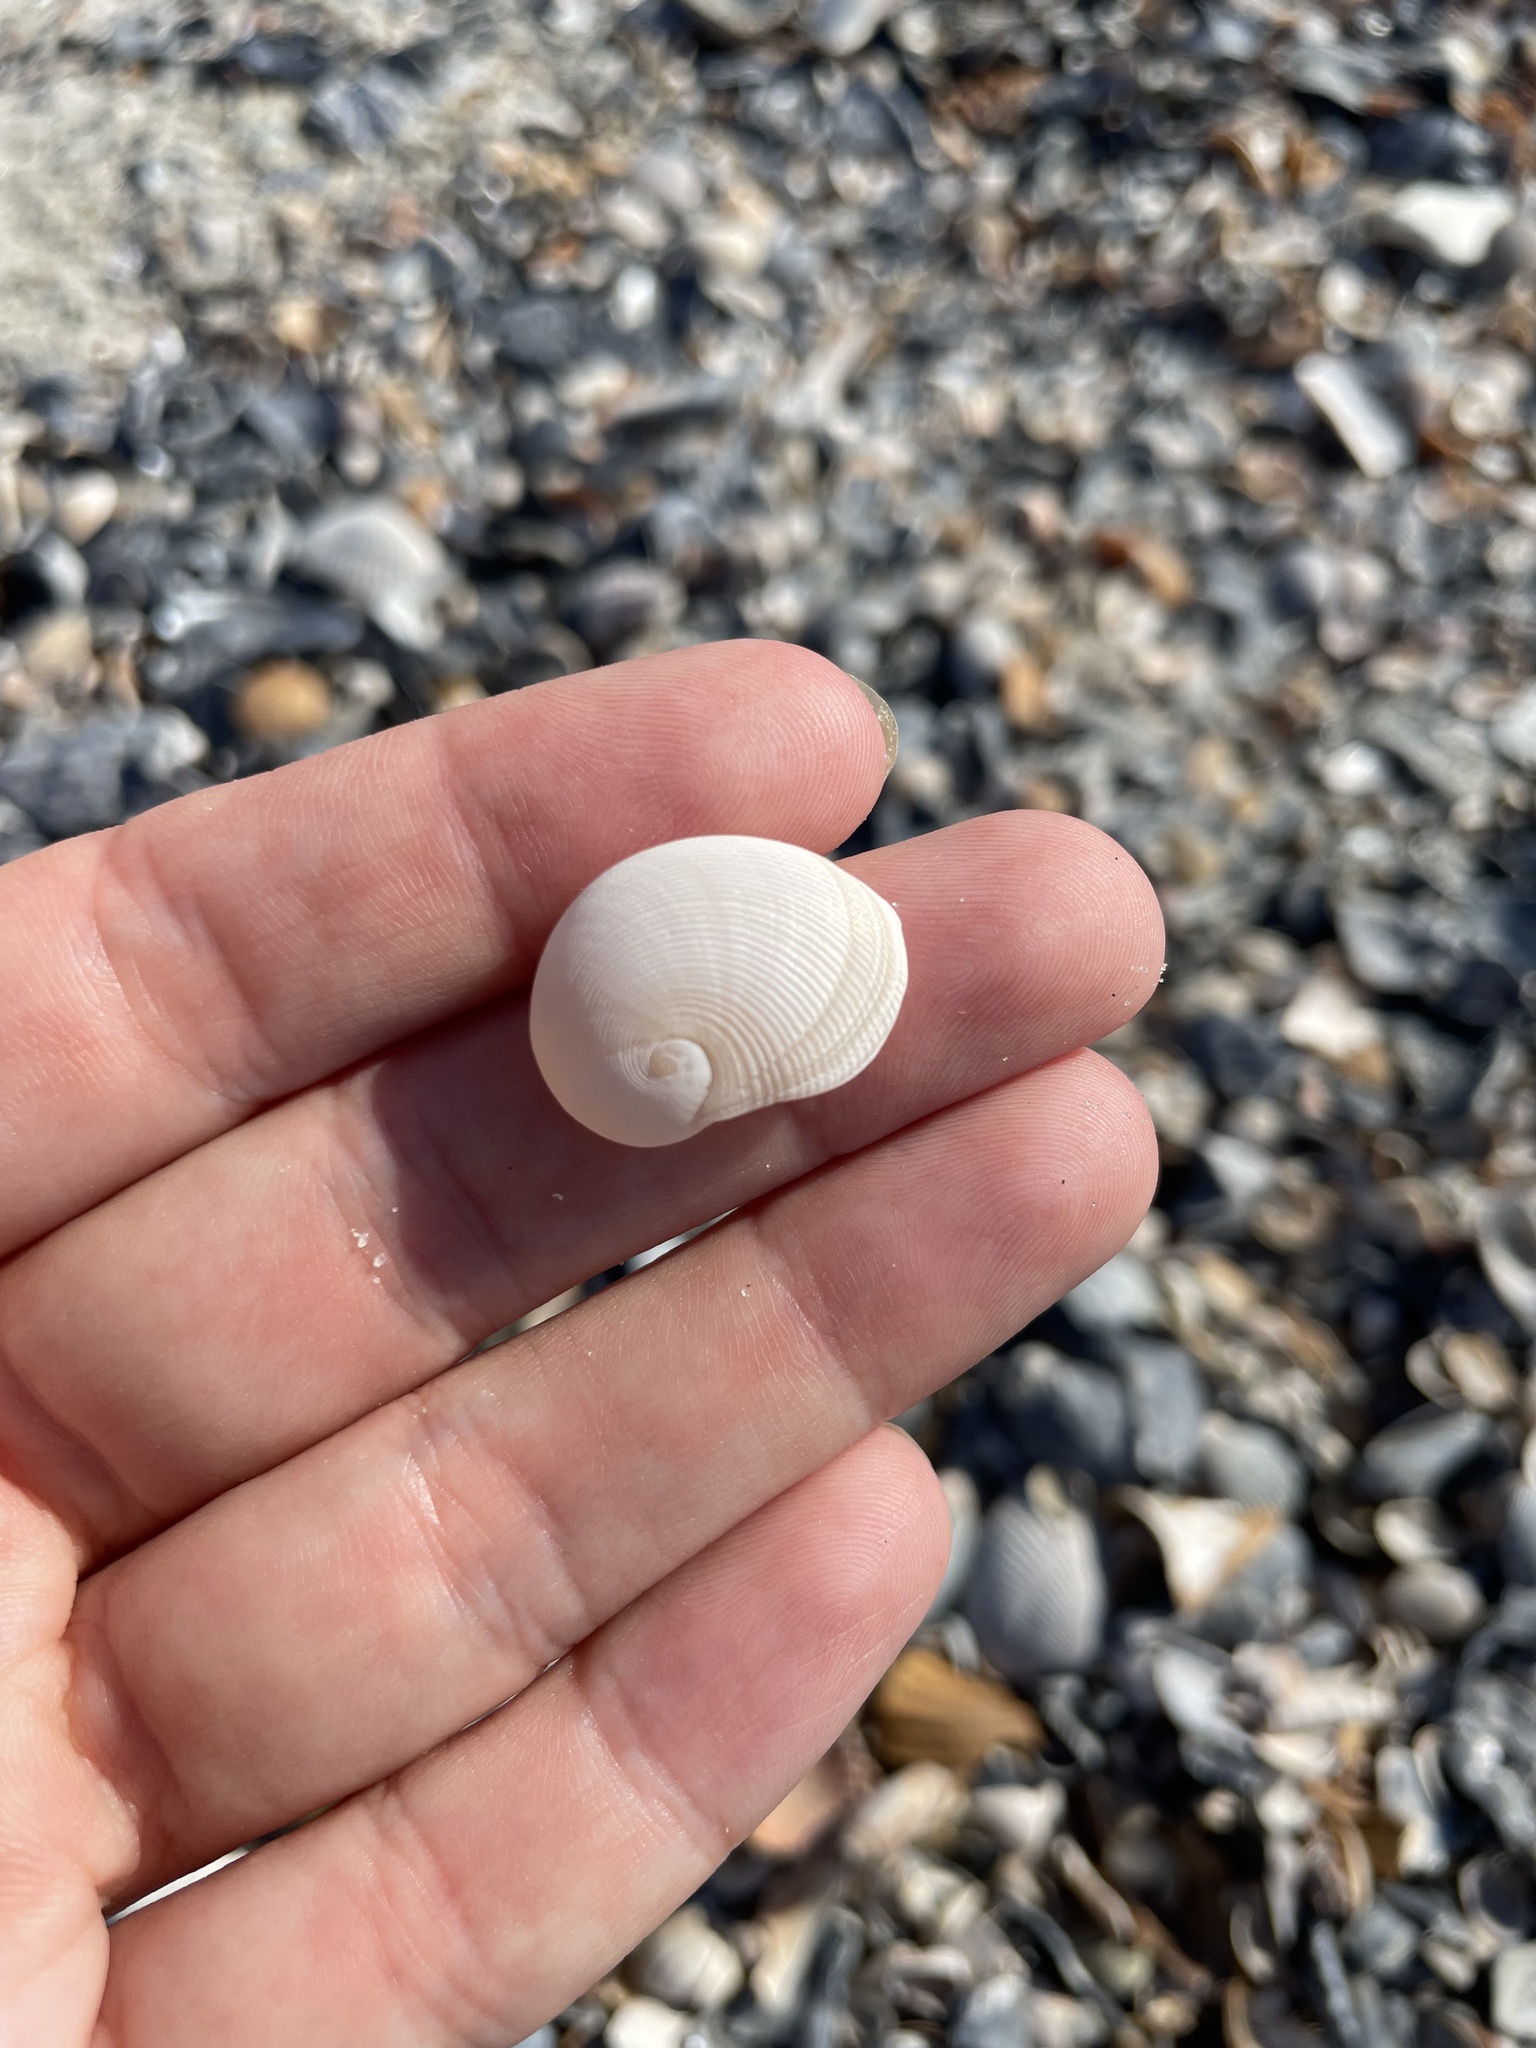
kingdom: Animalia
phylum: Mollusca
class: Gastropoda
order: Littorinimorpha
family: Naticidae
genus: Sinum
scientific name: Sinum perspectivum
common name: White baby ear
